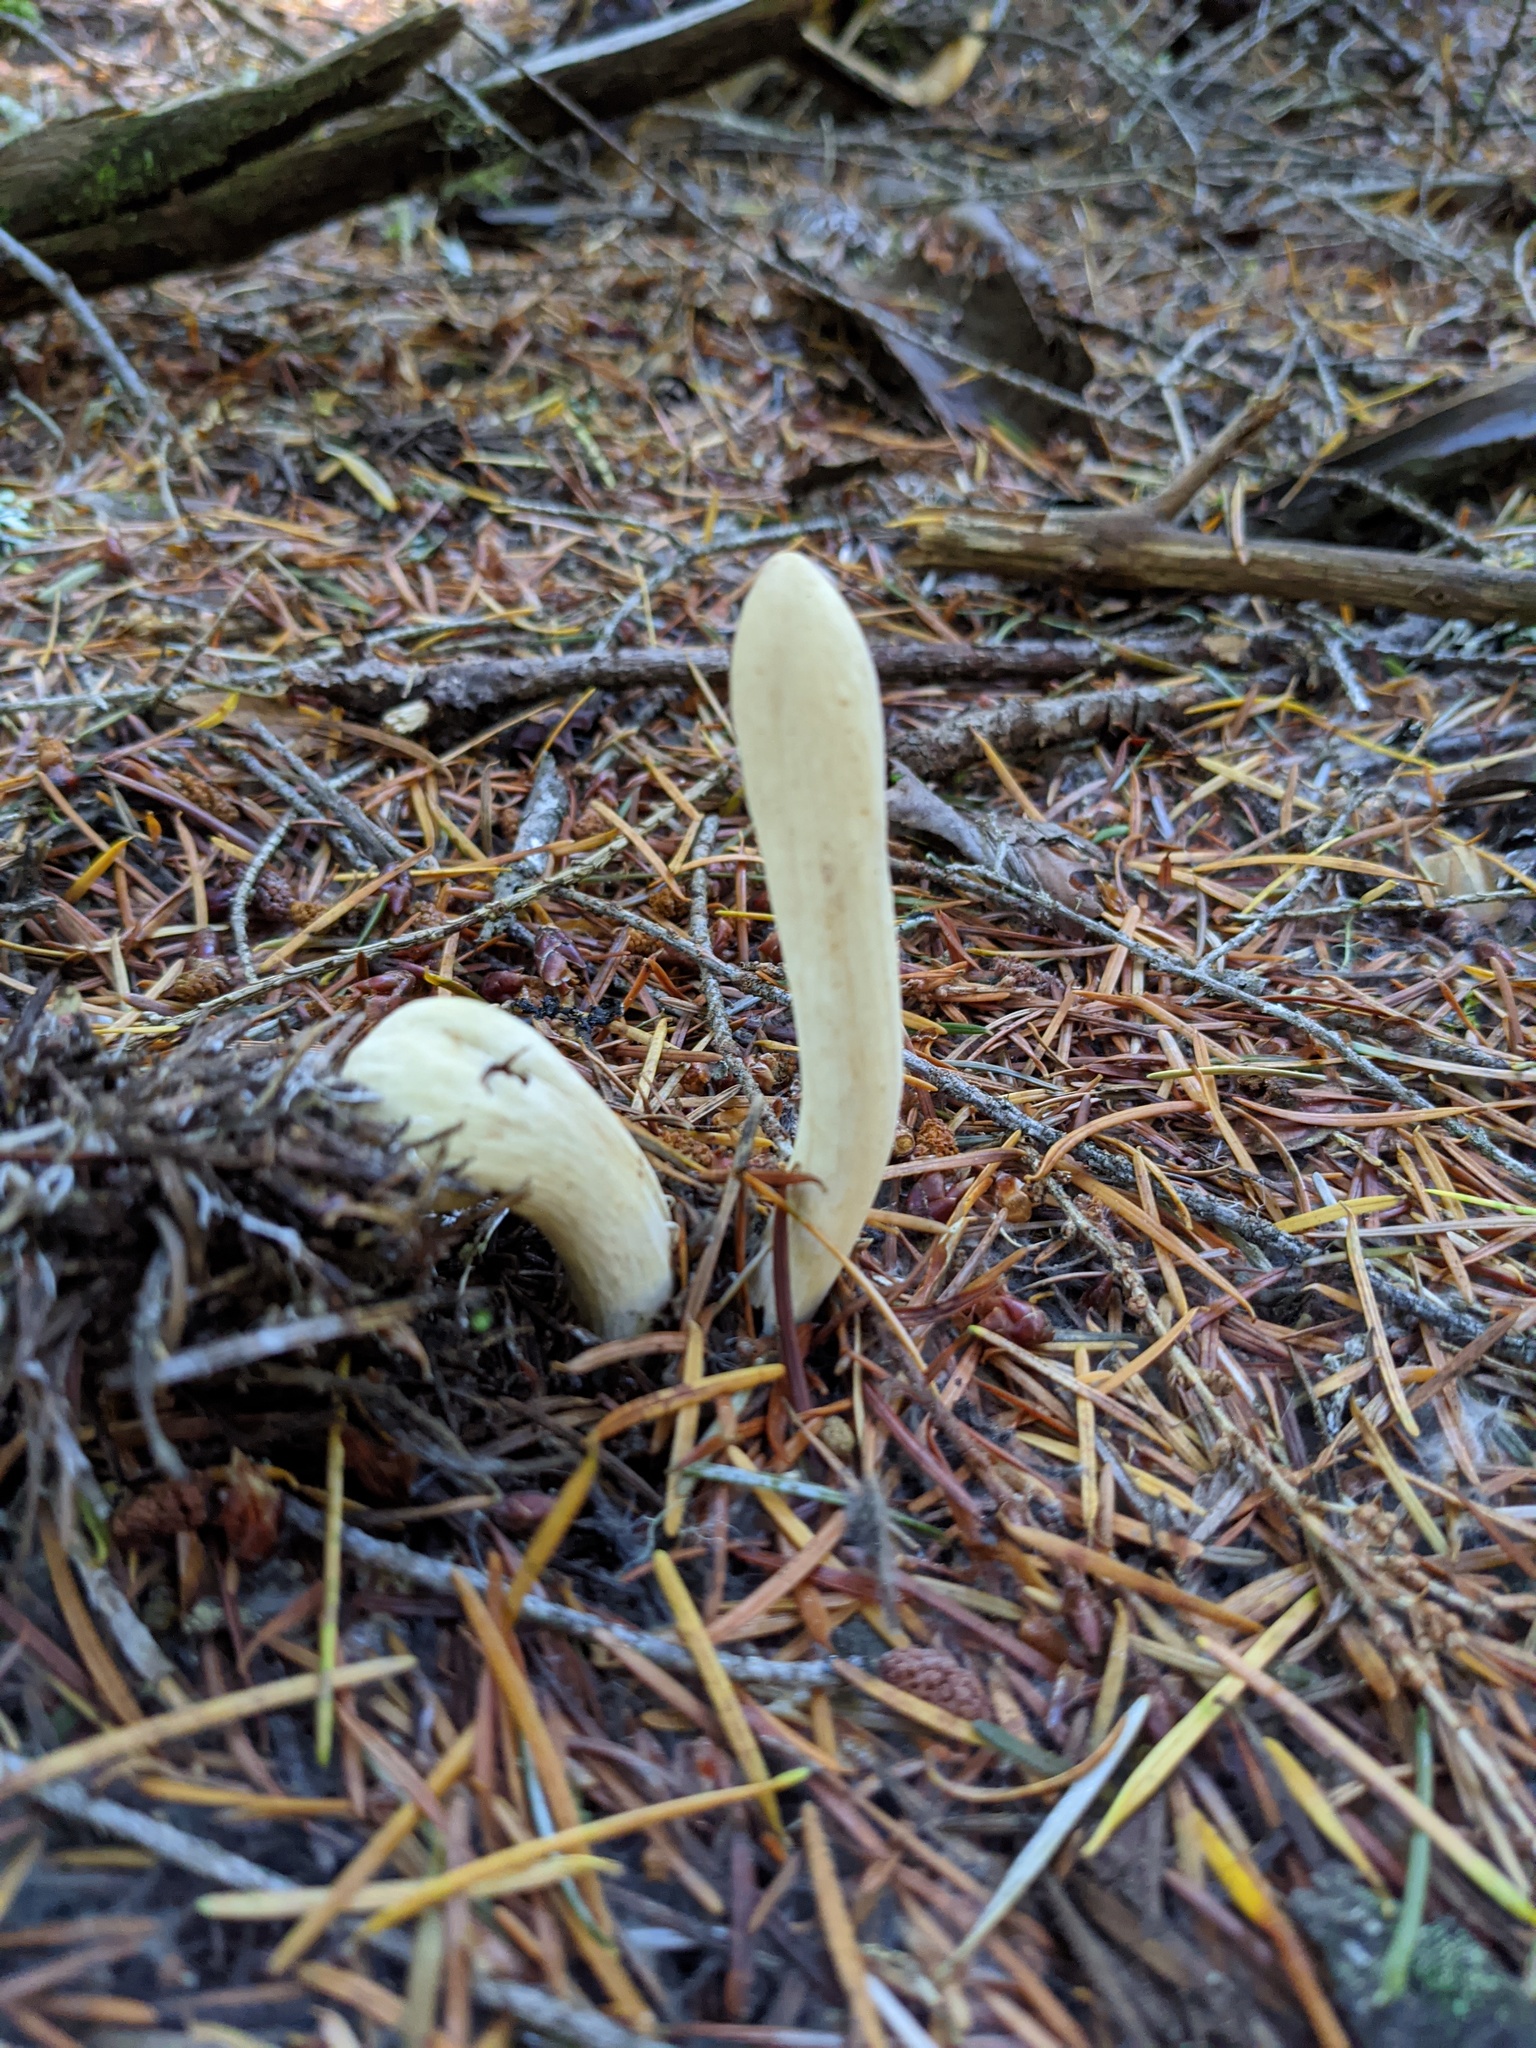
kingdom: Fungi
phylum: Basidiomycota
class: Agaricomycetes
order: Gomphales
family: Clavariadelphaceae
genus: Clavariadelphus
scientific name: Clavariadelphus occidentalis
